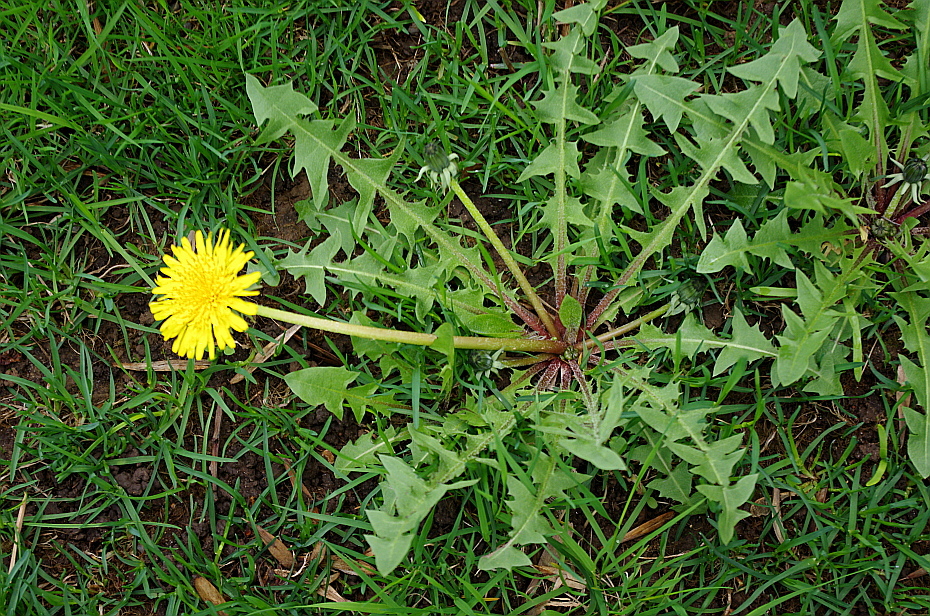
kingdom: Plantae
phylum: Tracheophyta
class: Magnoliopsida
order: Asterales
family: Asteraceae
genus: Taraxacum
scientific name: Taraxacum officinale
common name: Common dandelion
